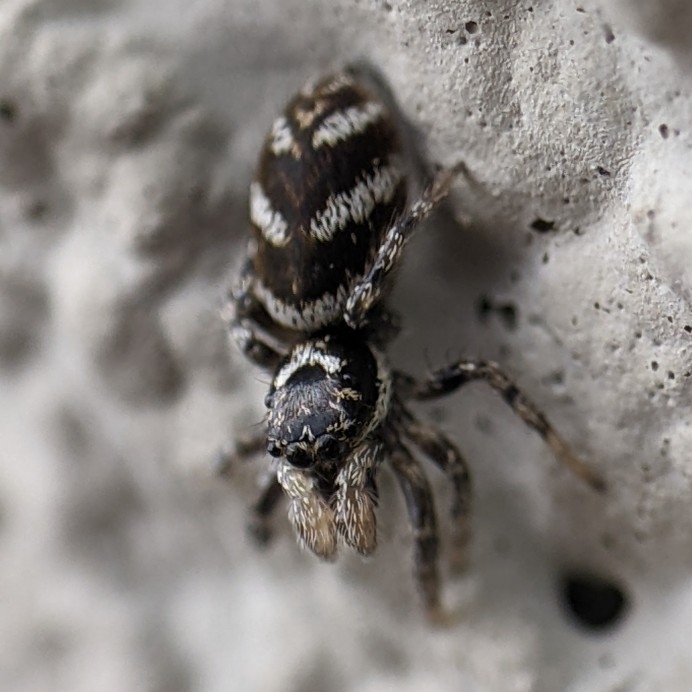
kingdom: Animalia
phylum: Arthropoda
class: Arachnida
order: Araneae
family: Salticidae
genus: Salticus
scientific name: Salticus scenicus
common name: Zebra jumper
